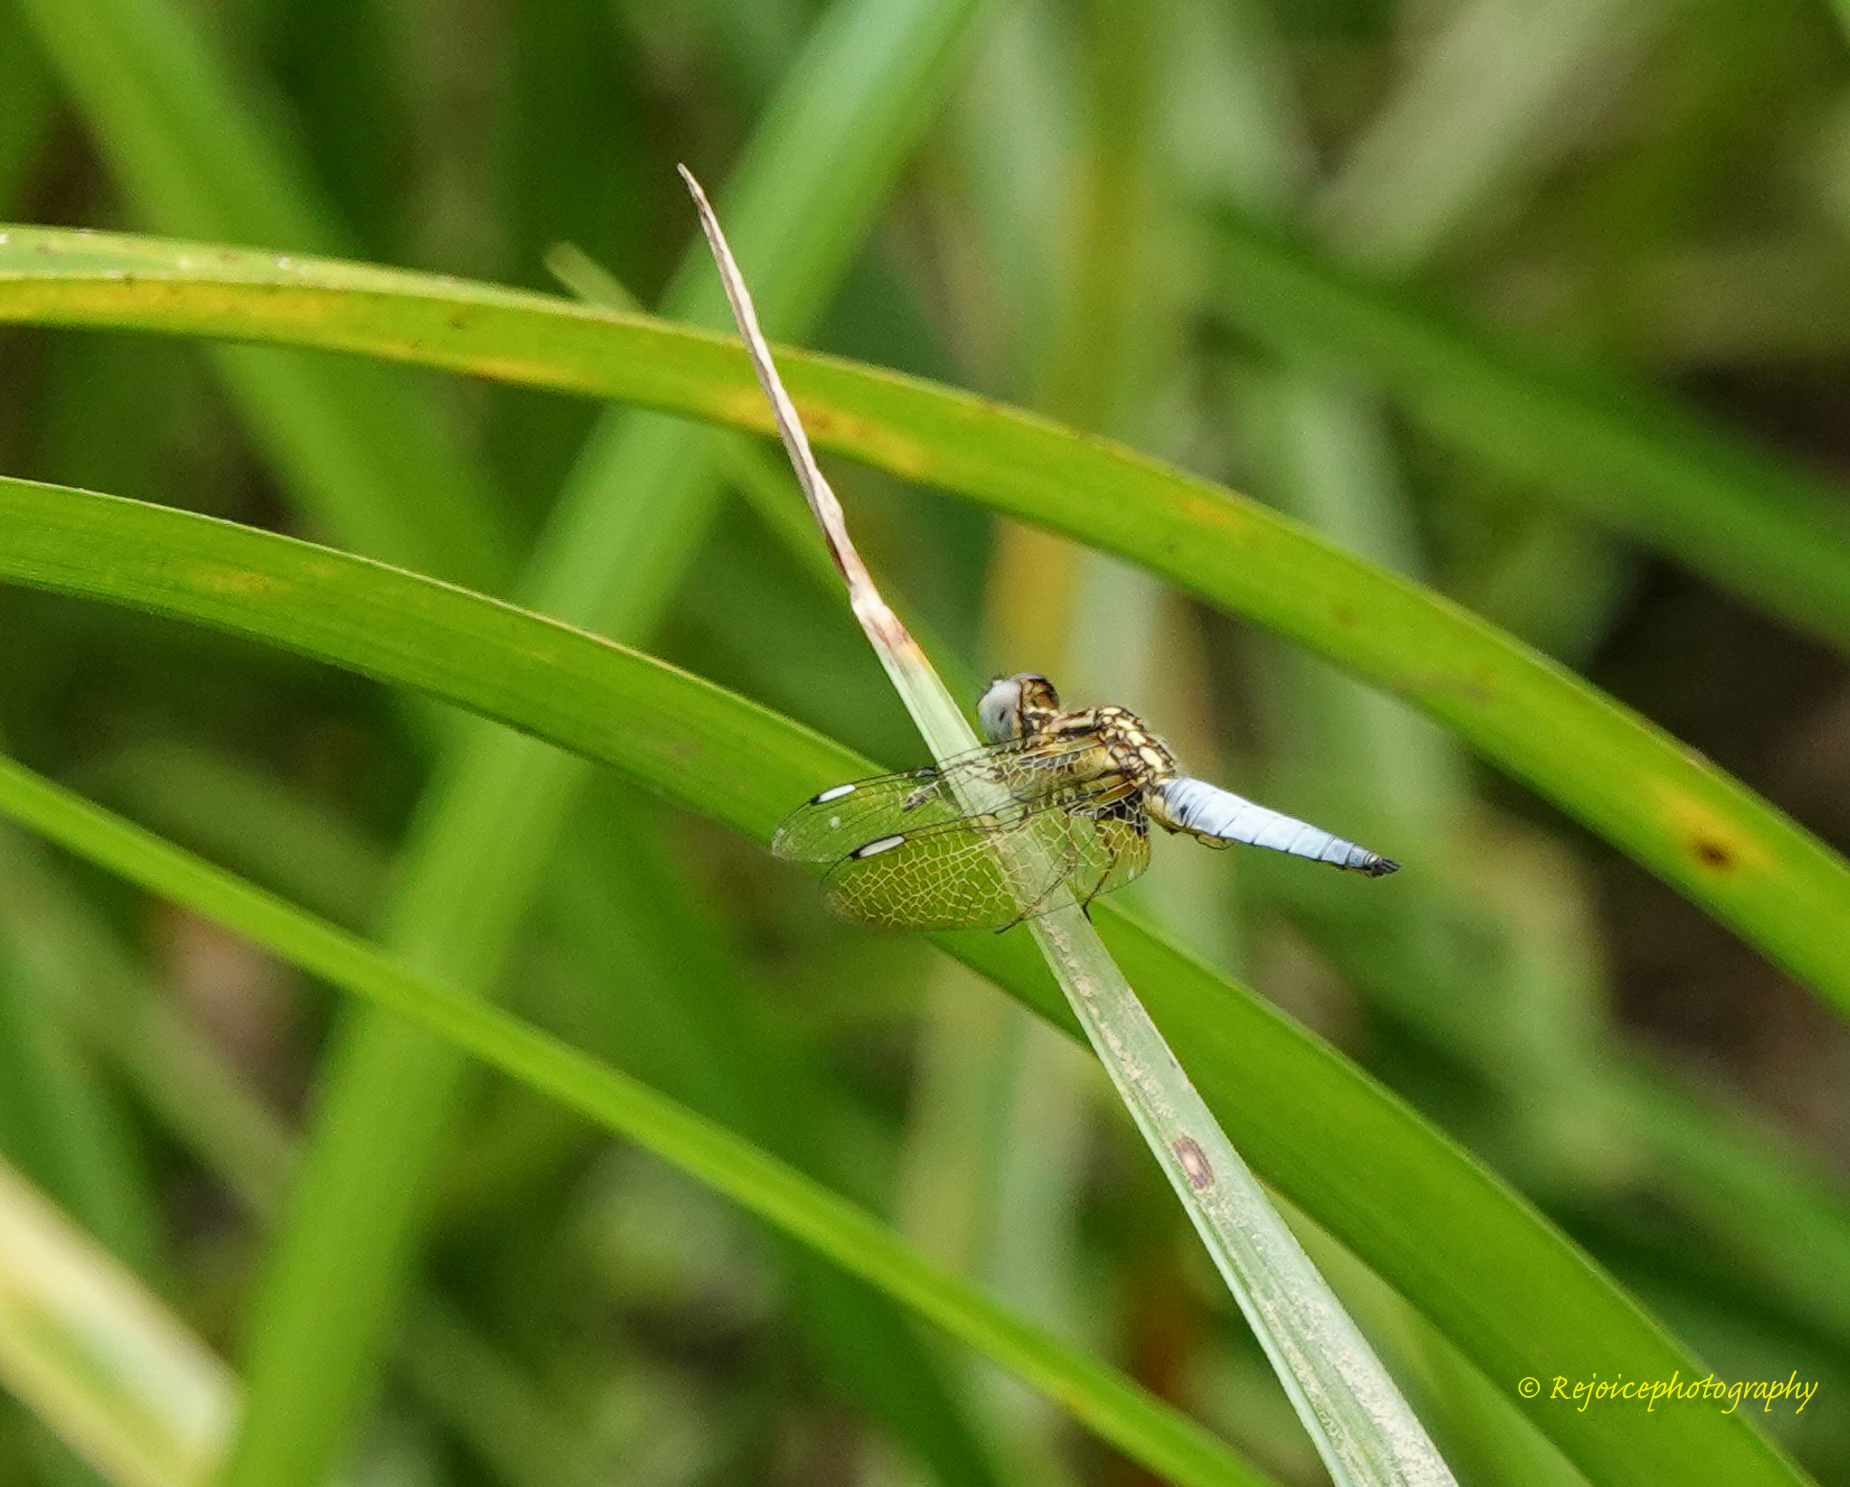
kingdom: Animalia
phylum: Arthropoda
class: Insecta
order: Odonata
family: Libellulidae
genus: Palpopleura
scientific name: Palpopleura sexmaculata
